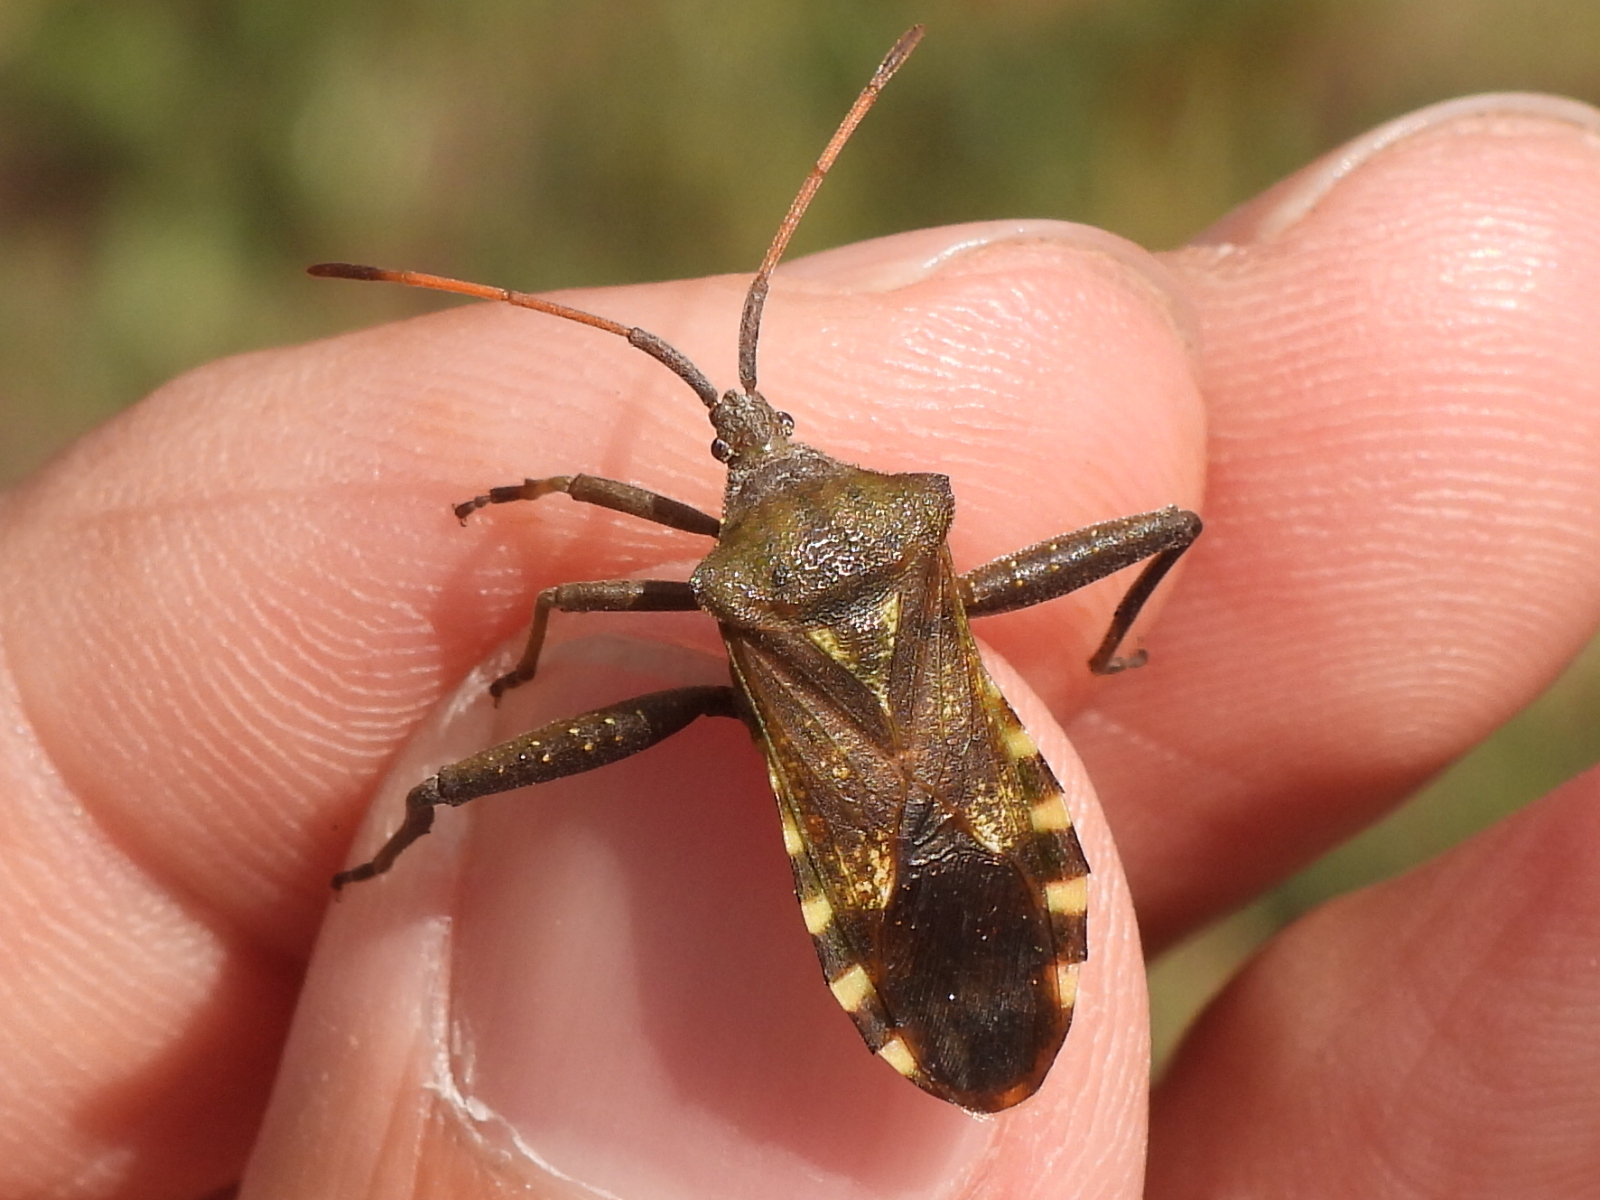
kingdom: Animalia
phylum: Arthropoda
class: Insecta
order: Hemiptera
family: Coreidae
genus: Mozena
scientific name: Mozena obtusa
